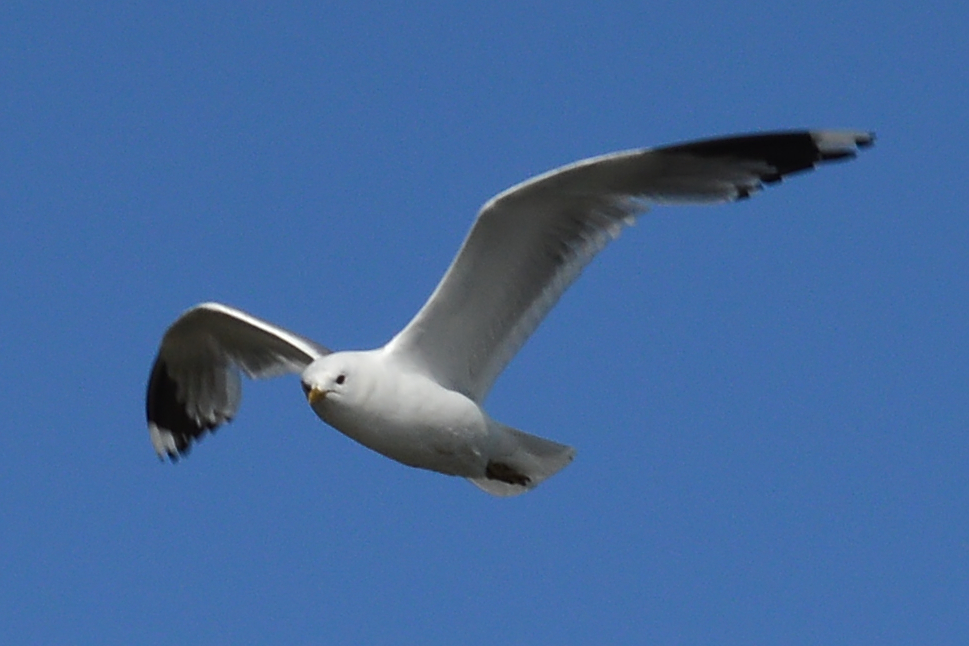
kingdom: Animalia
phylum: Chordata
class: Aves
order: Charadriiformes
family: Laridae
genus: Larus
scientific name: Larus canus
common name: Mew gull
